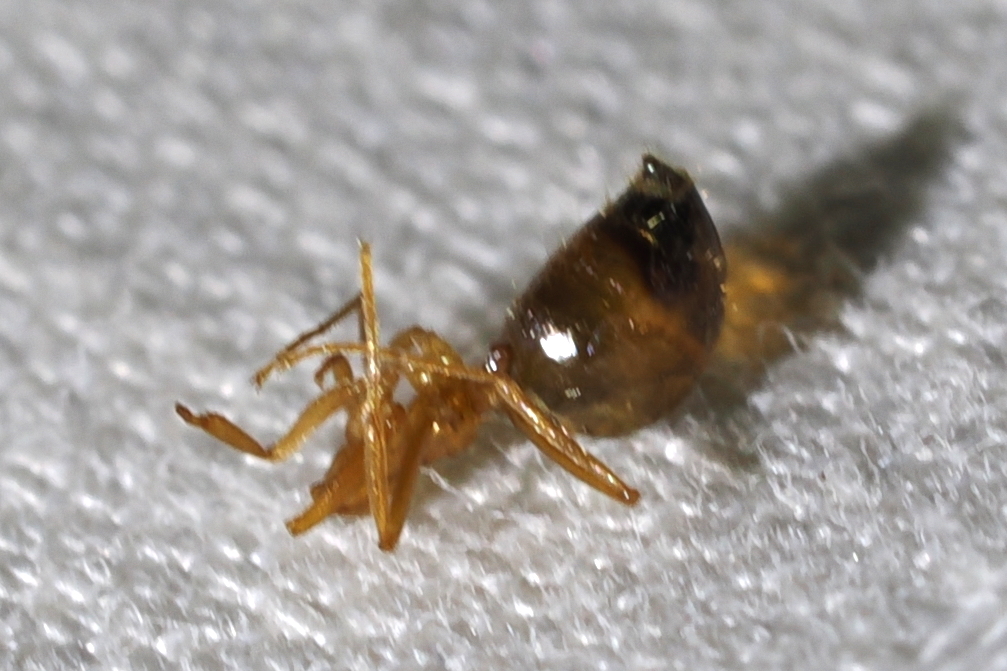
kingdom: Animalia
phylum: Arthropoda
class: Insecta
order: Hymenoptera
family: Formicidae
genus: Prenolepis
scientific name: Prenolepis imparis
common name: Small honey ant
